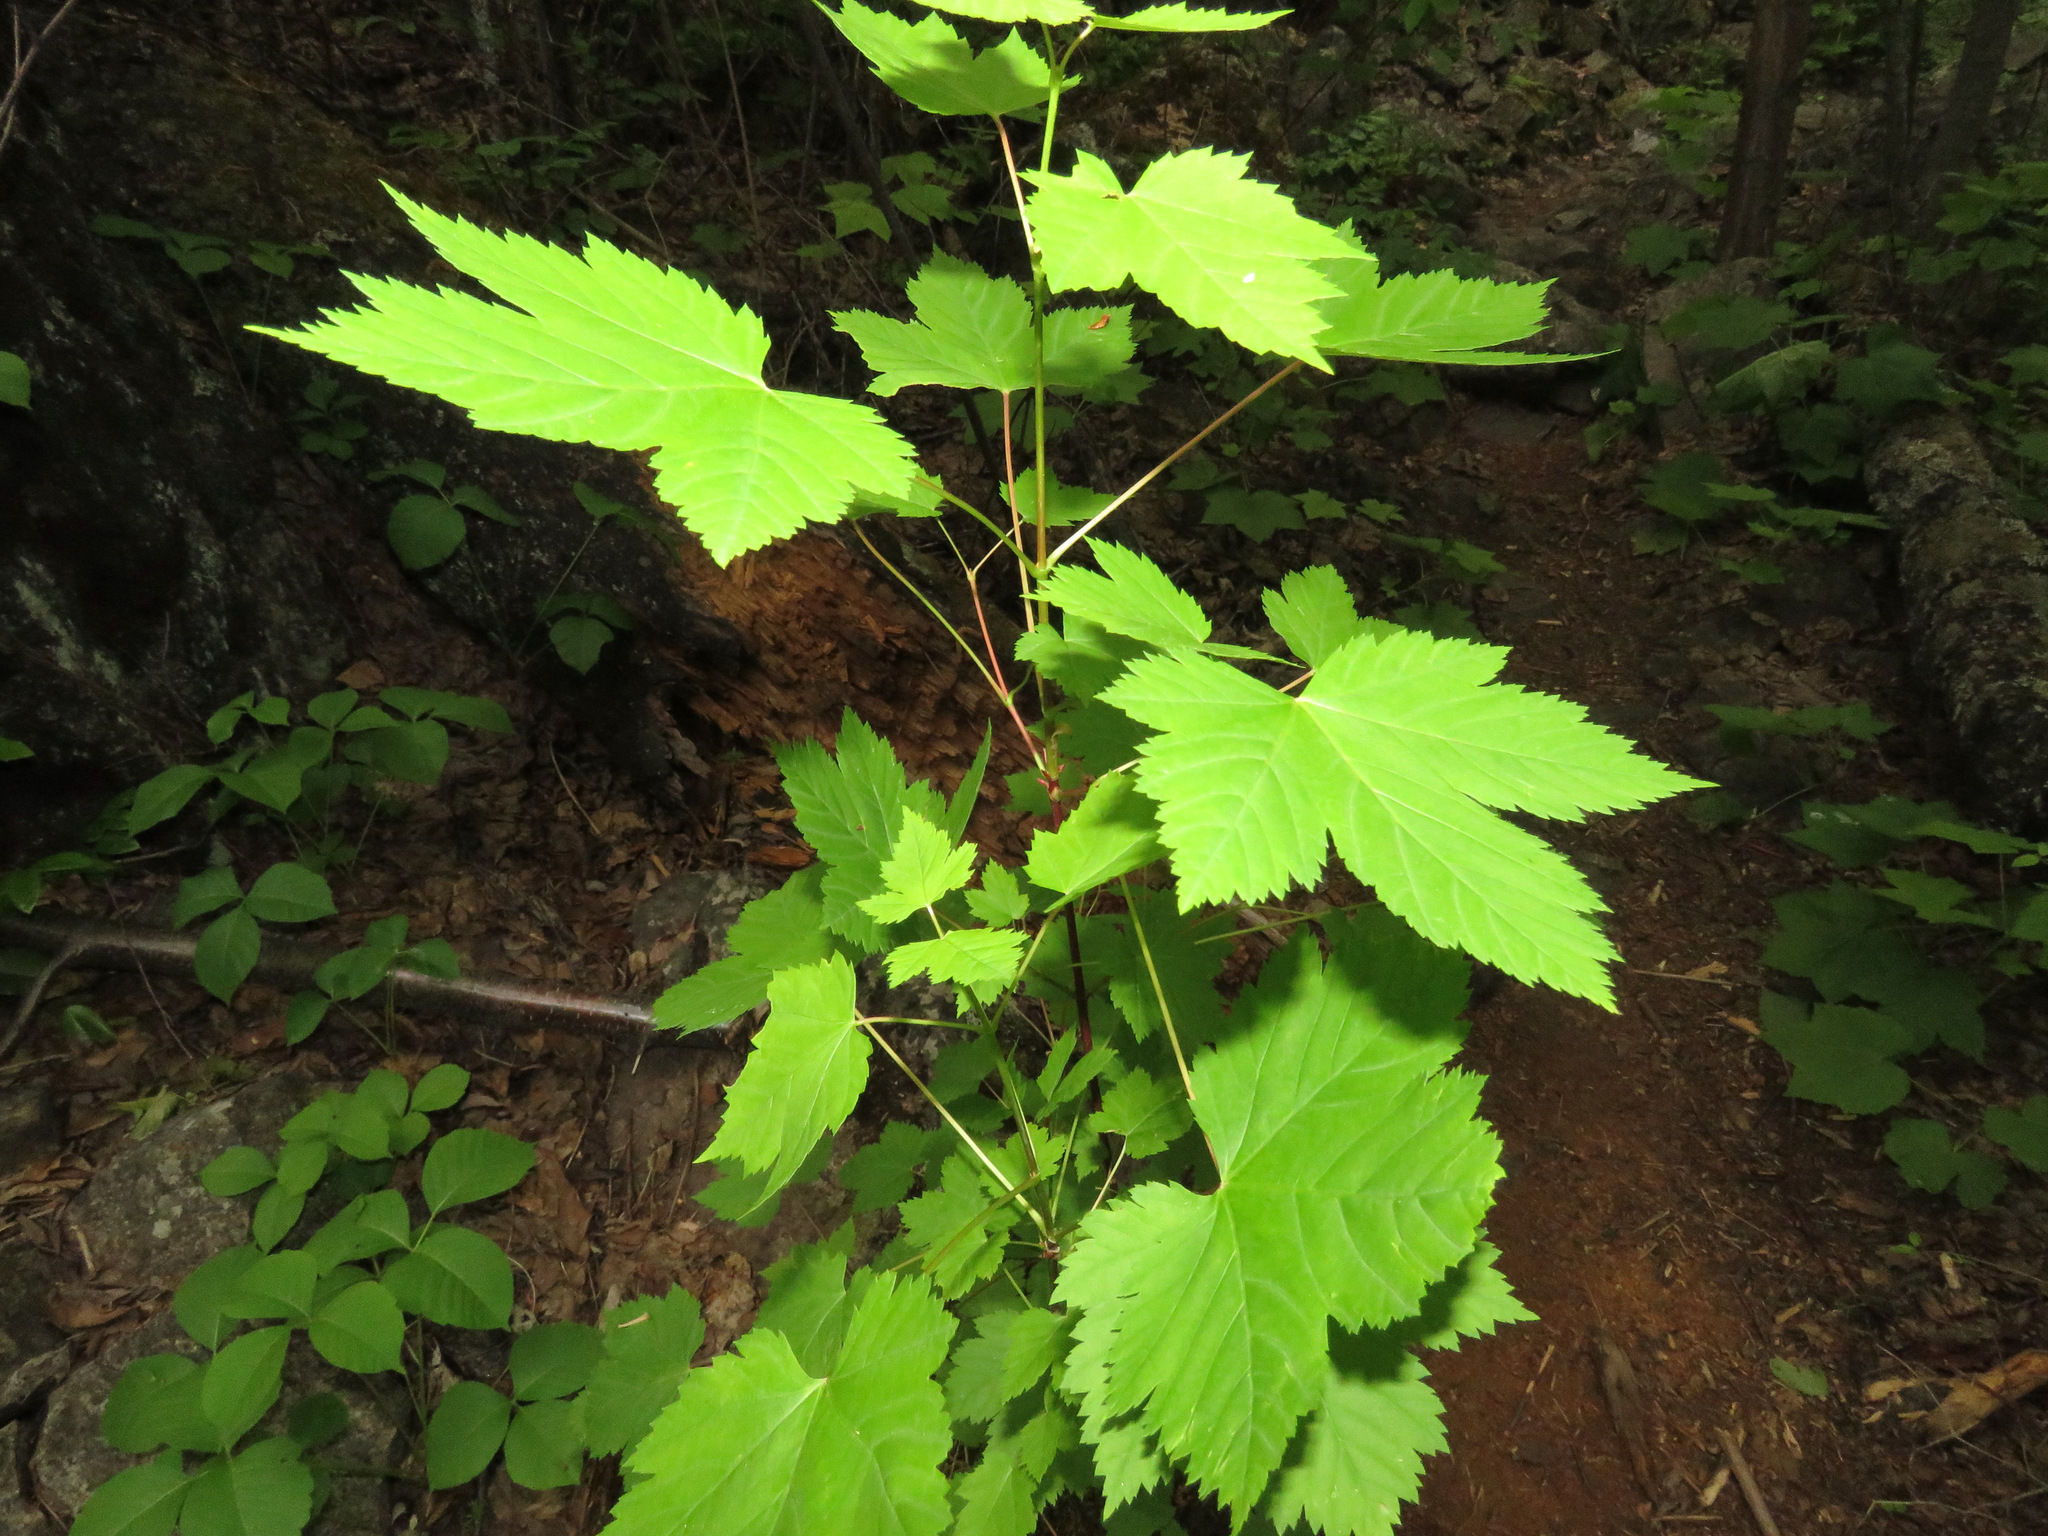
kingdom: Plantae
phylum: Tracheophyta
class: Magnoliopsida
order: Sapindales
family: Sapindaceae
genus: Acer
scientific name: Acer glabrum
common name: Rocky mountain maple
